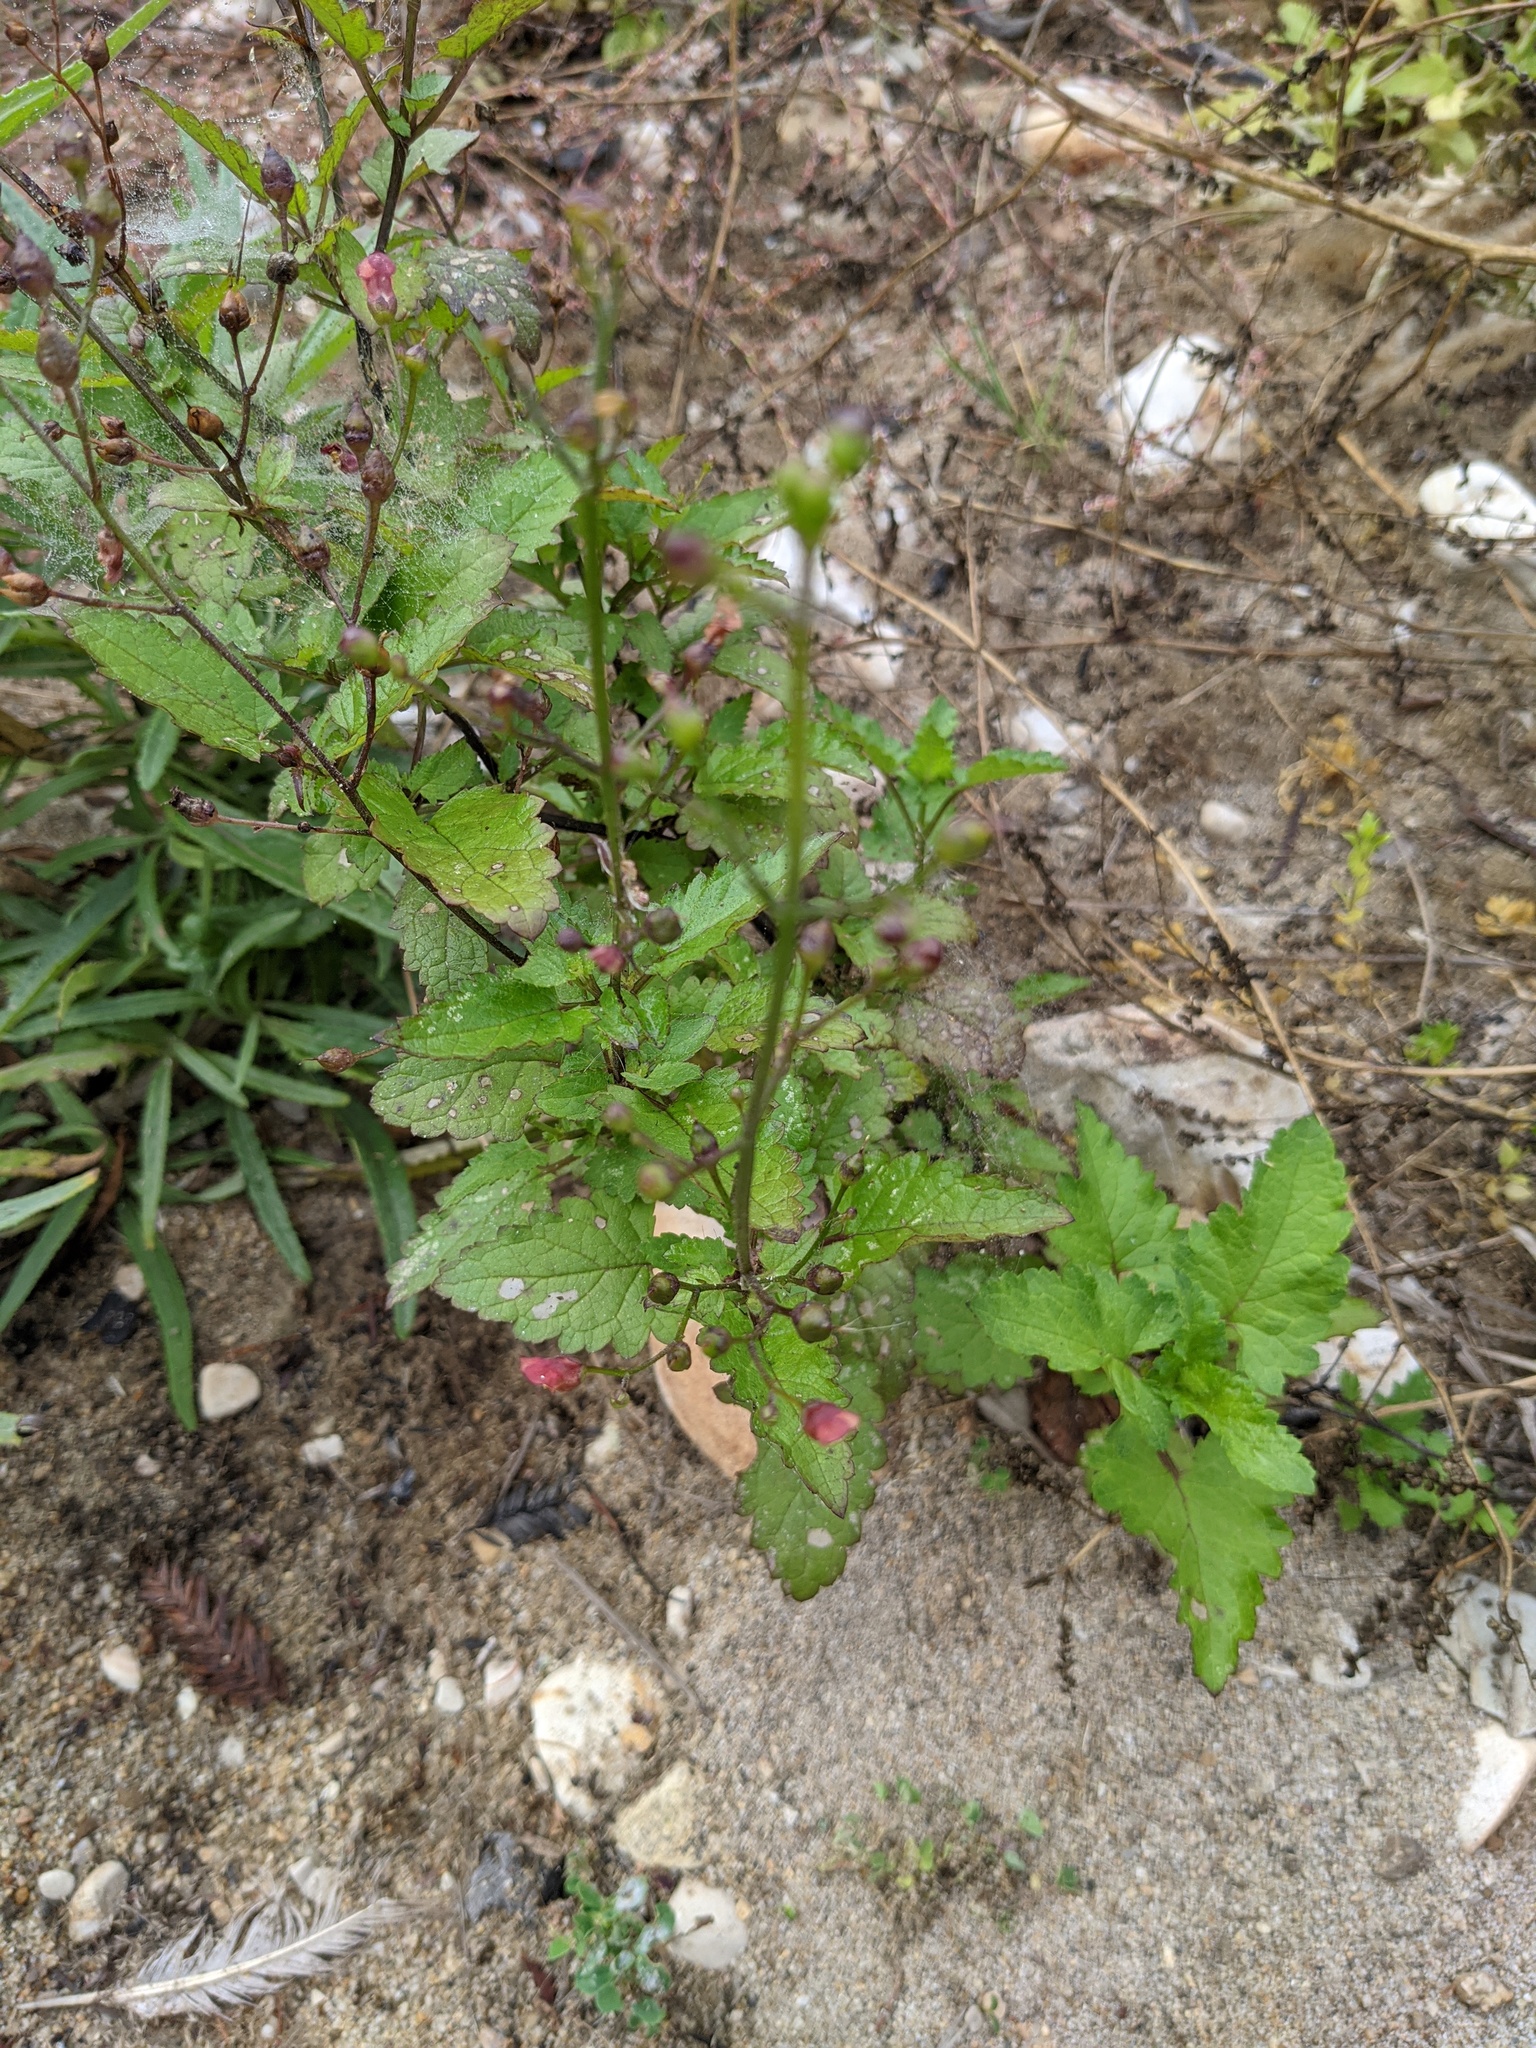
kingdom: Plantae
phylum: Tracheophyta
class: Magnoliopsida
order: Lamiales
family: Scrophulariaceae
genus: Scrophularia
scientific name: Scrophularia californica
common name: California figwort
